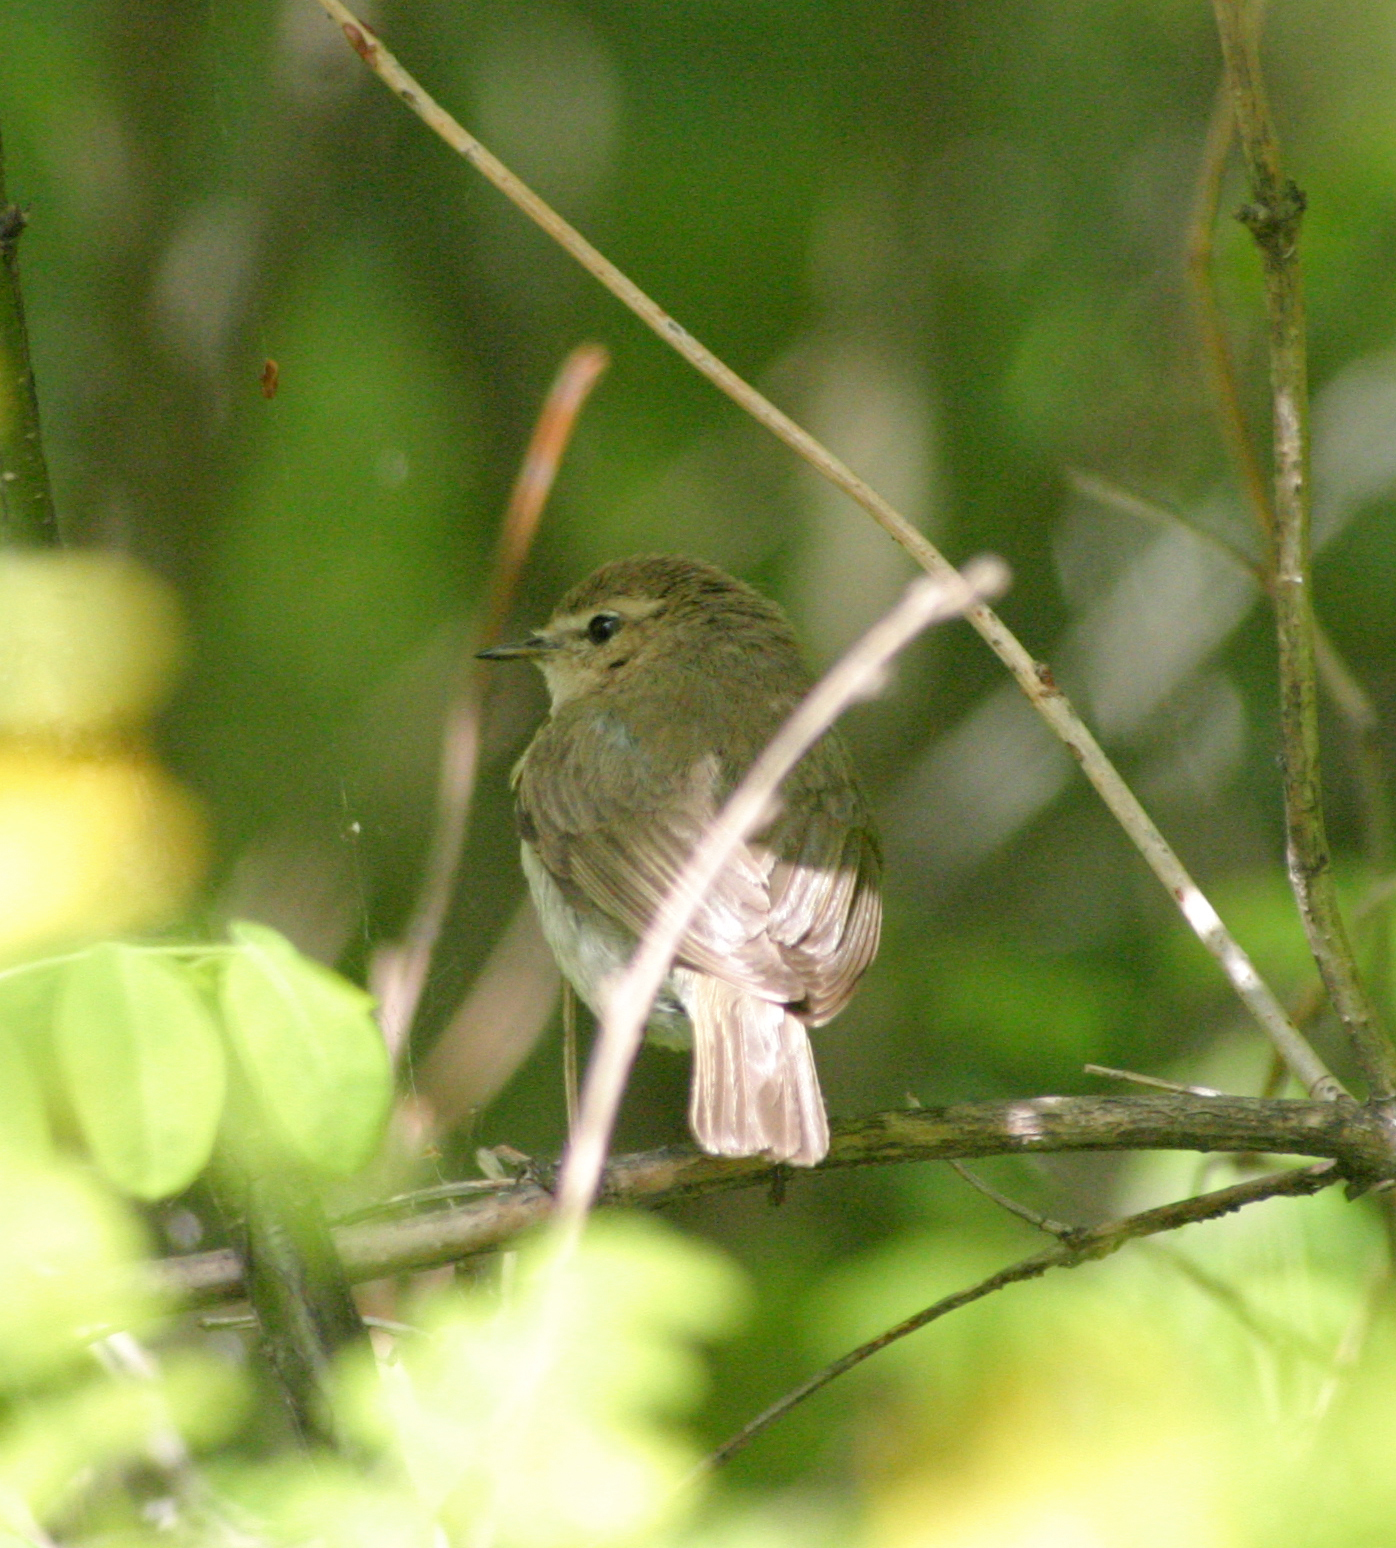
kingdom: Animalia
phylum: Chordata
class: Aves
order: Passeriformes
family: Phylloscopidae
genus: Phylloscopus
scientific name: Phylloscopus collybita
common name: Common chiffchaff
